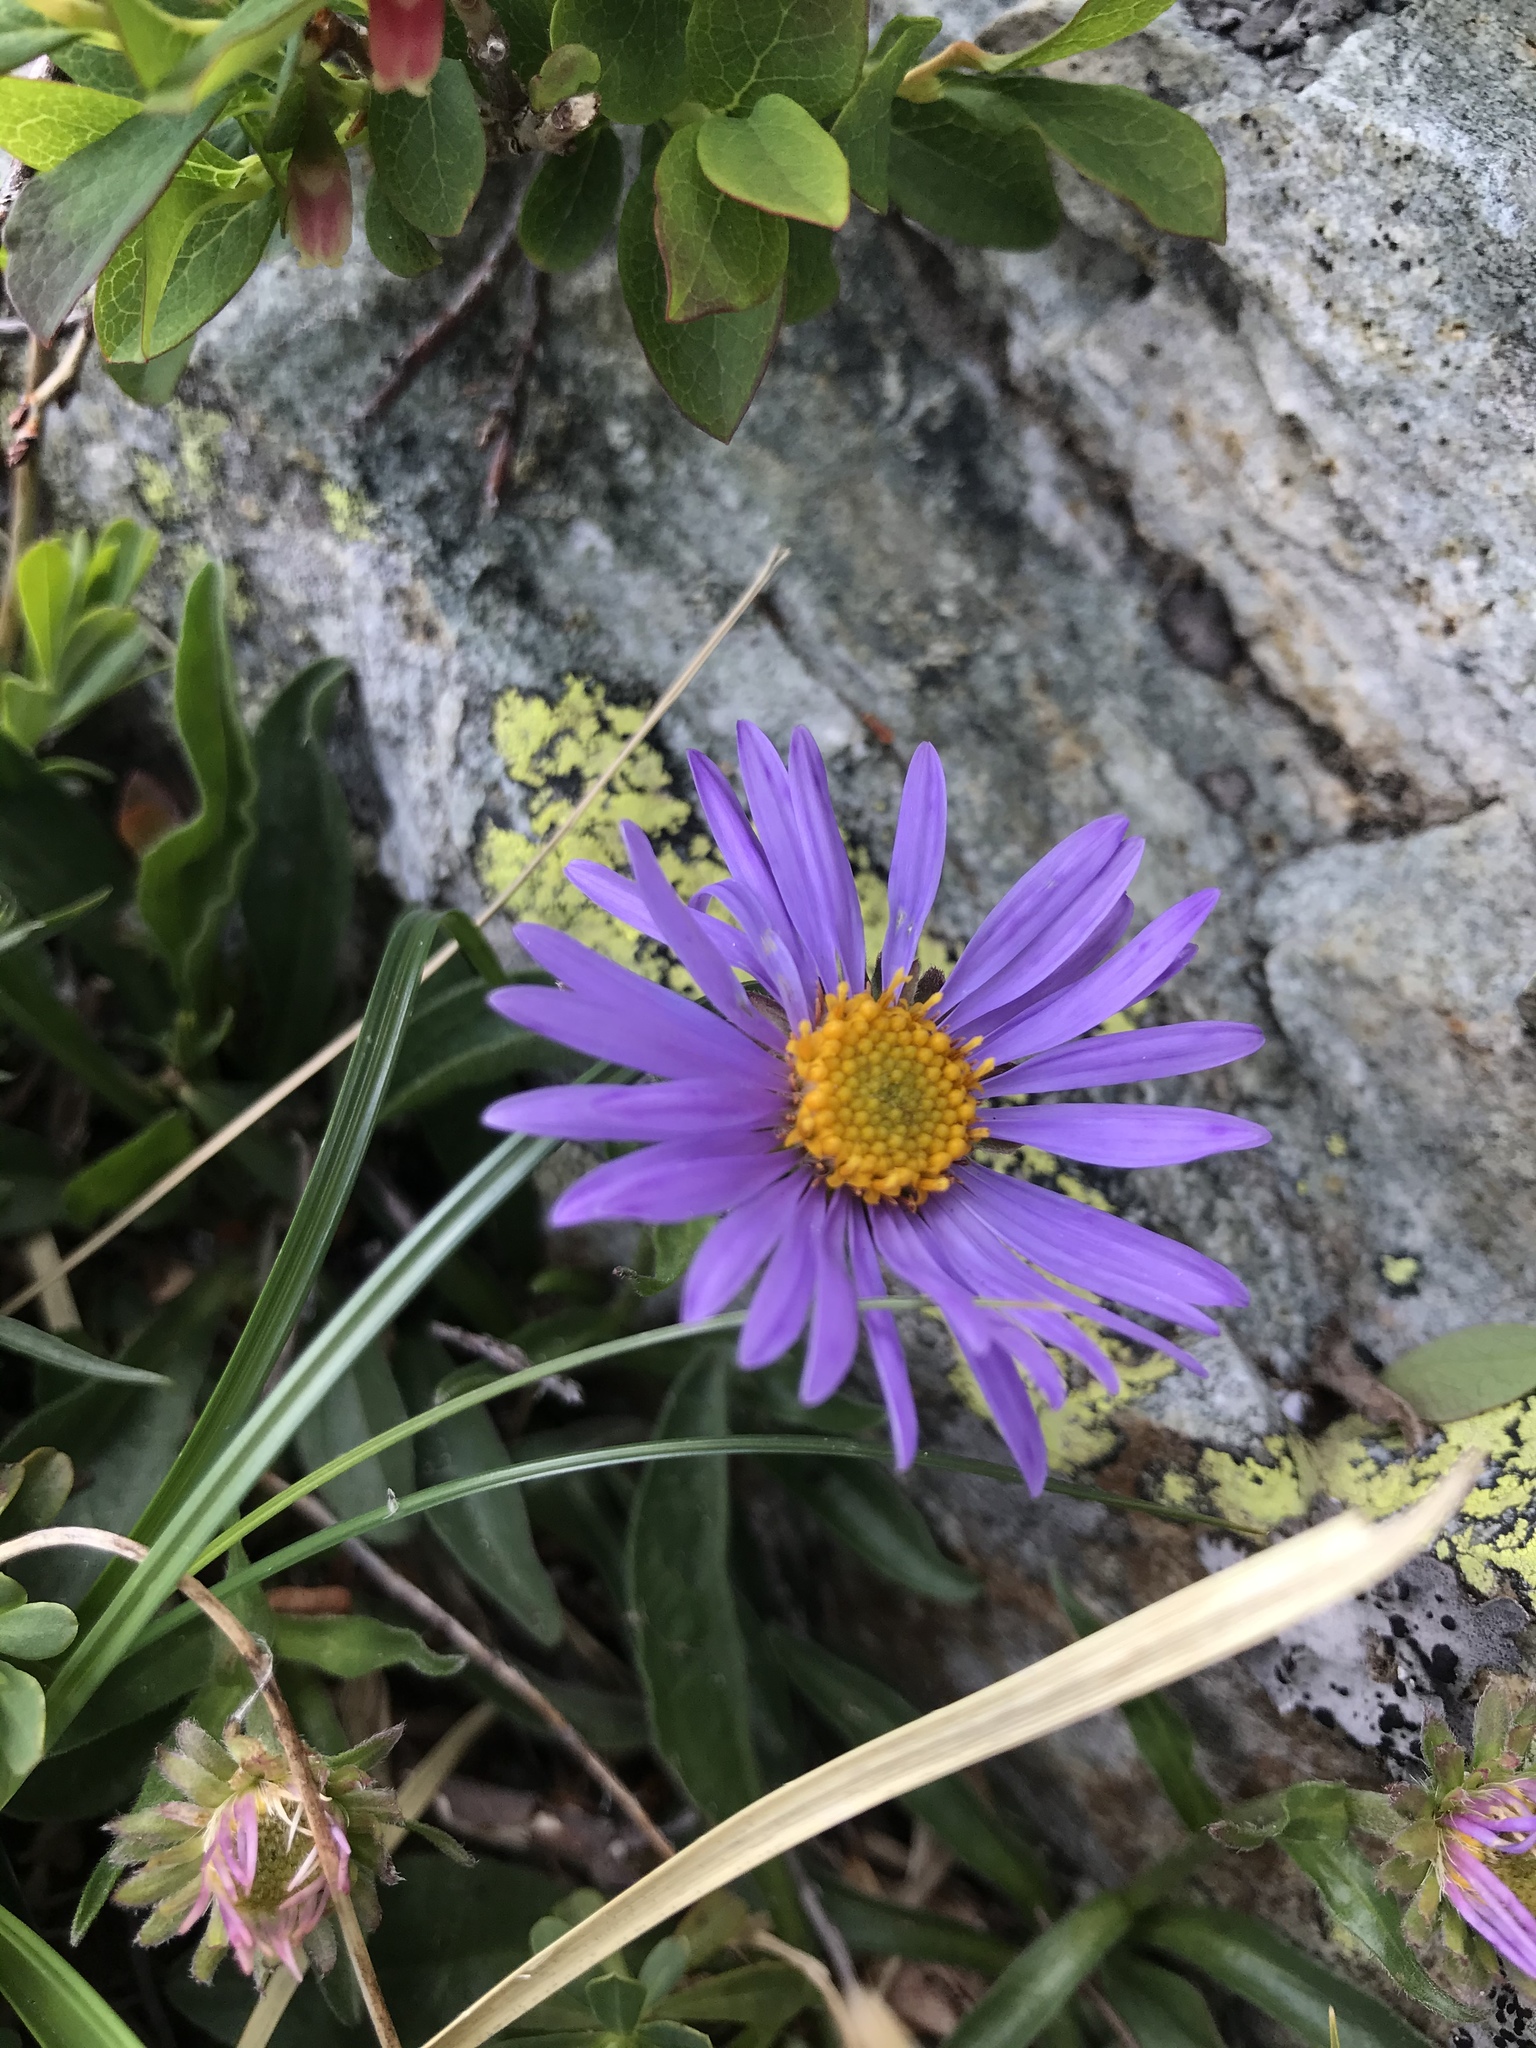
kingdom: Plantae
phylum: Tracheophyta
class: Magnoliopsida
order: Asterales
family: Asteraceae
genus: Aster
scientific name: Aster alpinus
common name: Alpine aster
